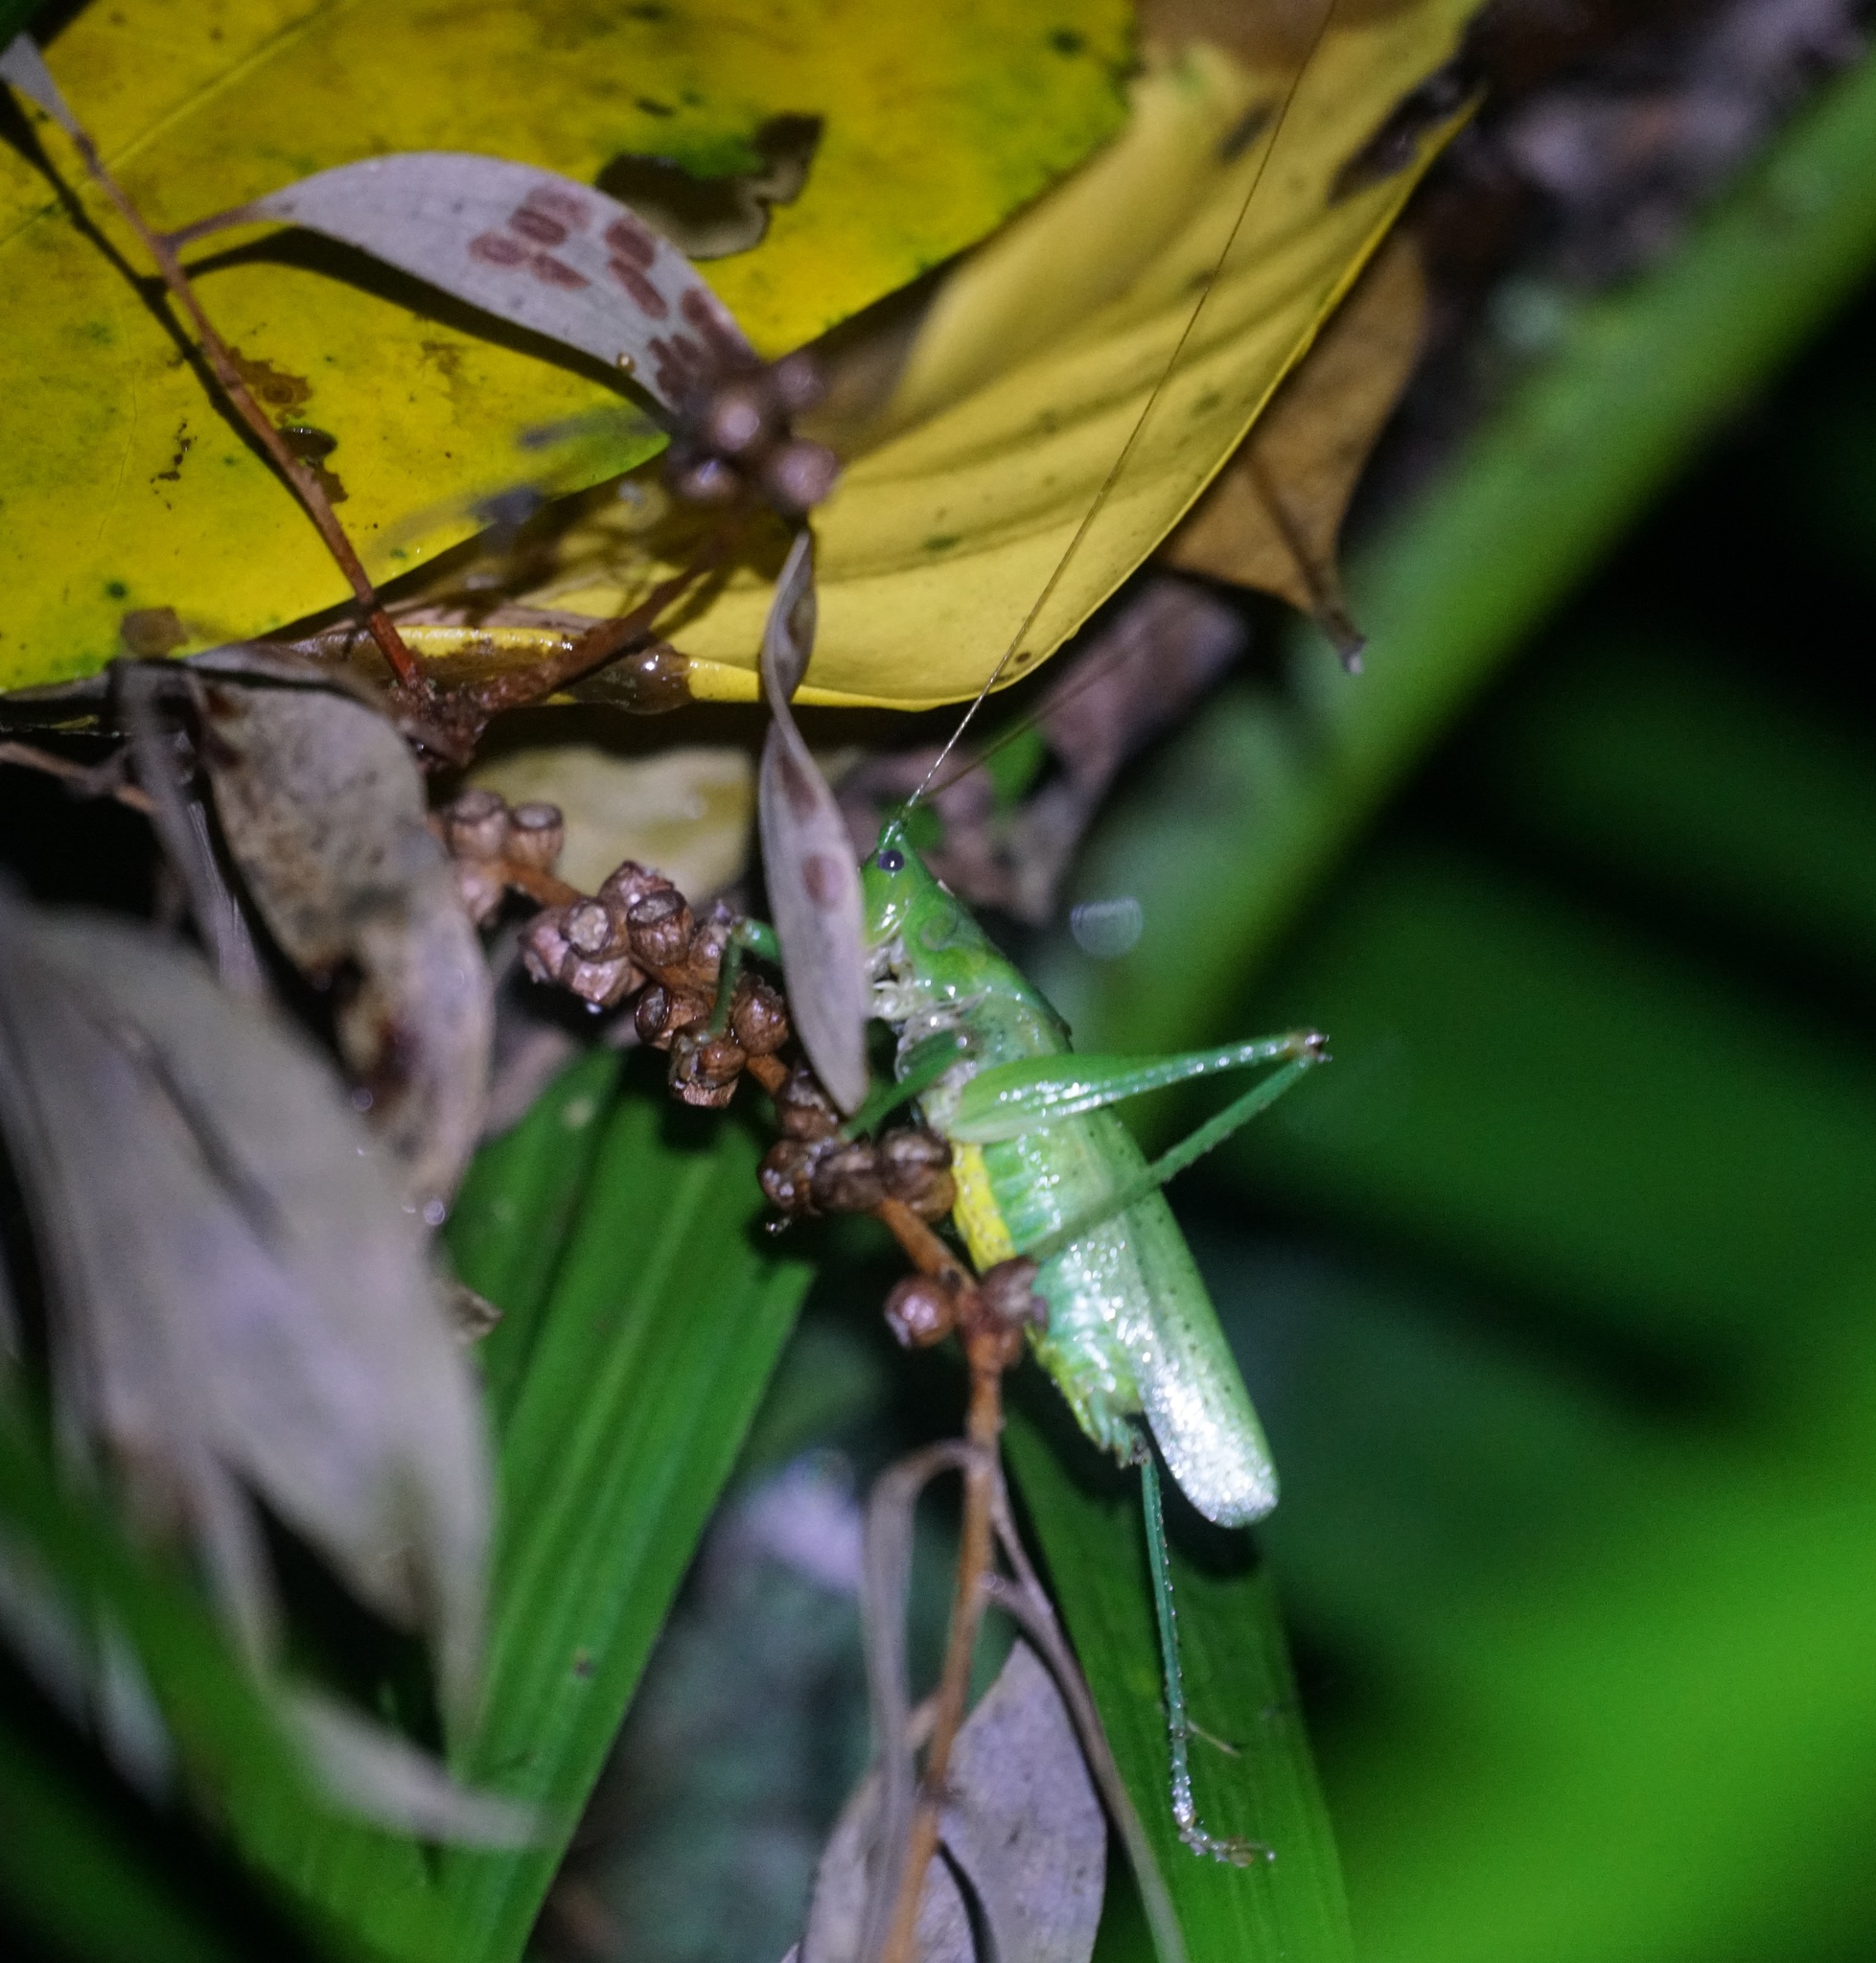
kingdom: Animalia
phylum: Arthropoda
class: Insecta
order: Orthoptera
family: Tettigoniidae
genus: Austrosalomona
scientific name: Austrosalomona destructor
